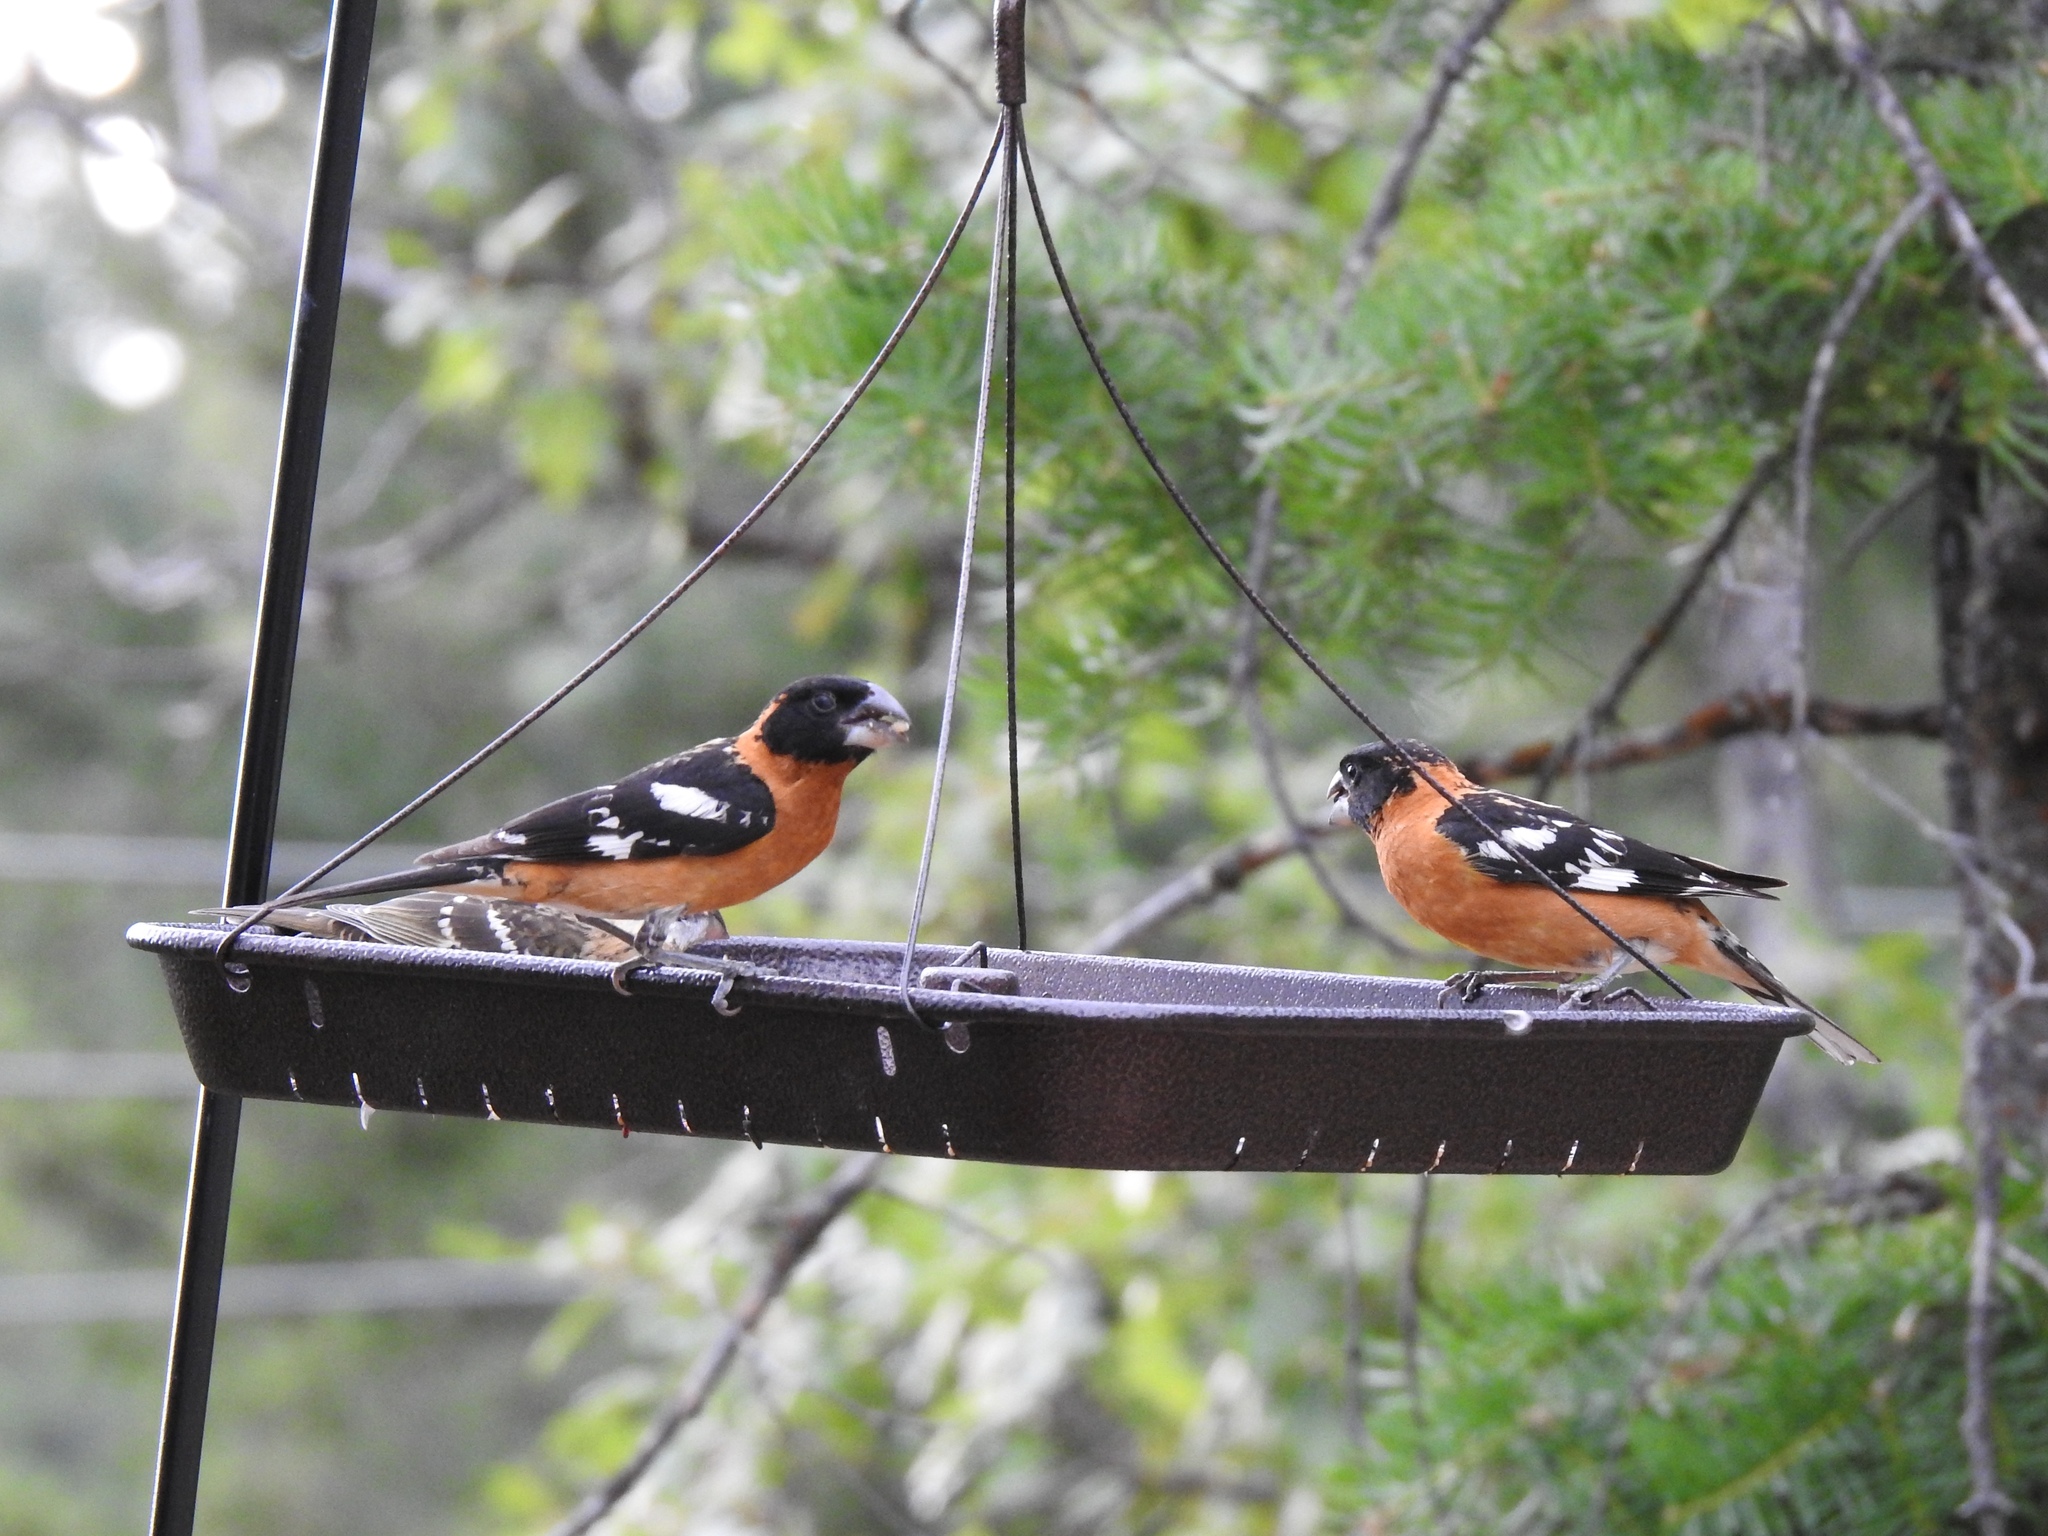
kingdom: Animalia
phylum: Chordata
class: Aves
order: Passeriformes
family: Cardinalidae
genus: Pheucticus
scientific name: Pheucticus melanocephalus
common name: Black-headed grosbeak
